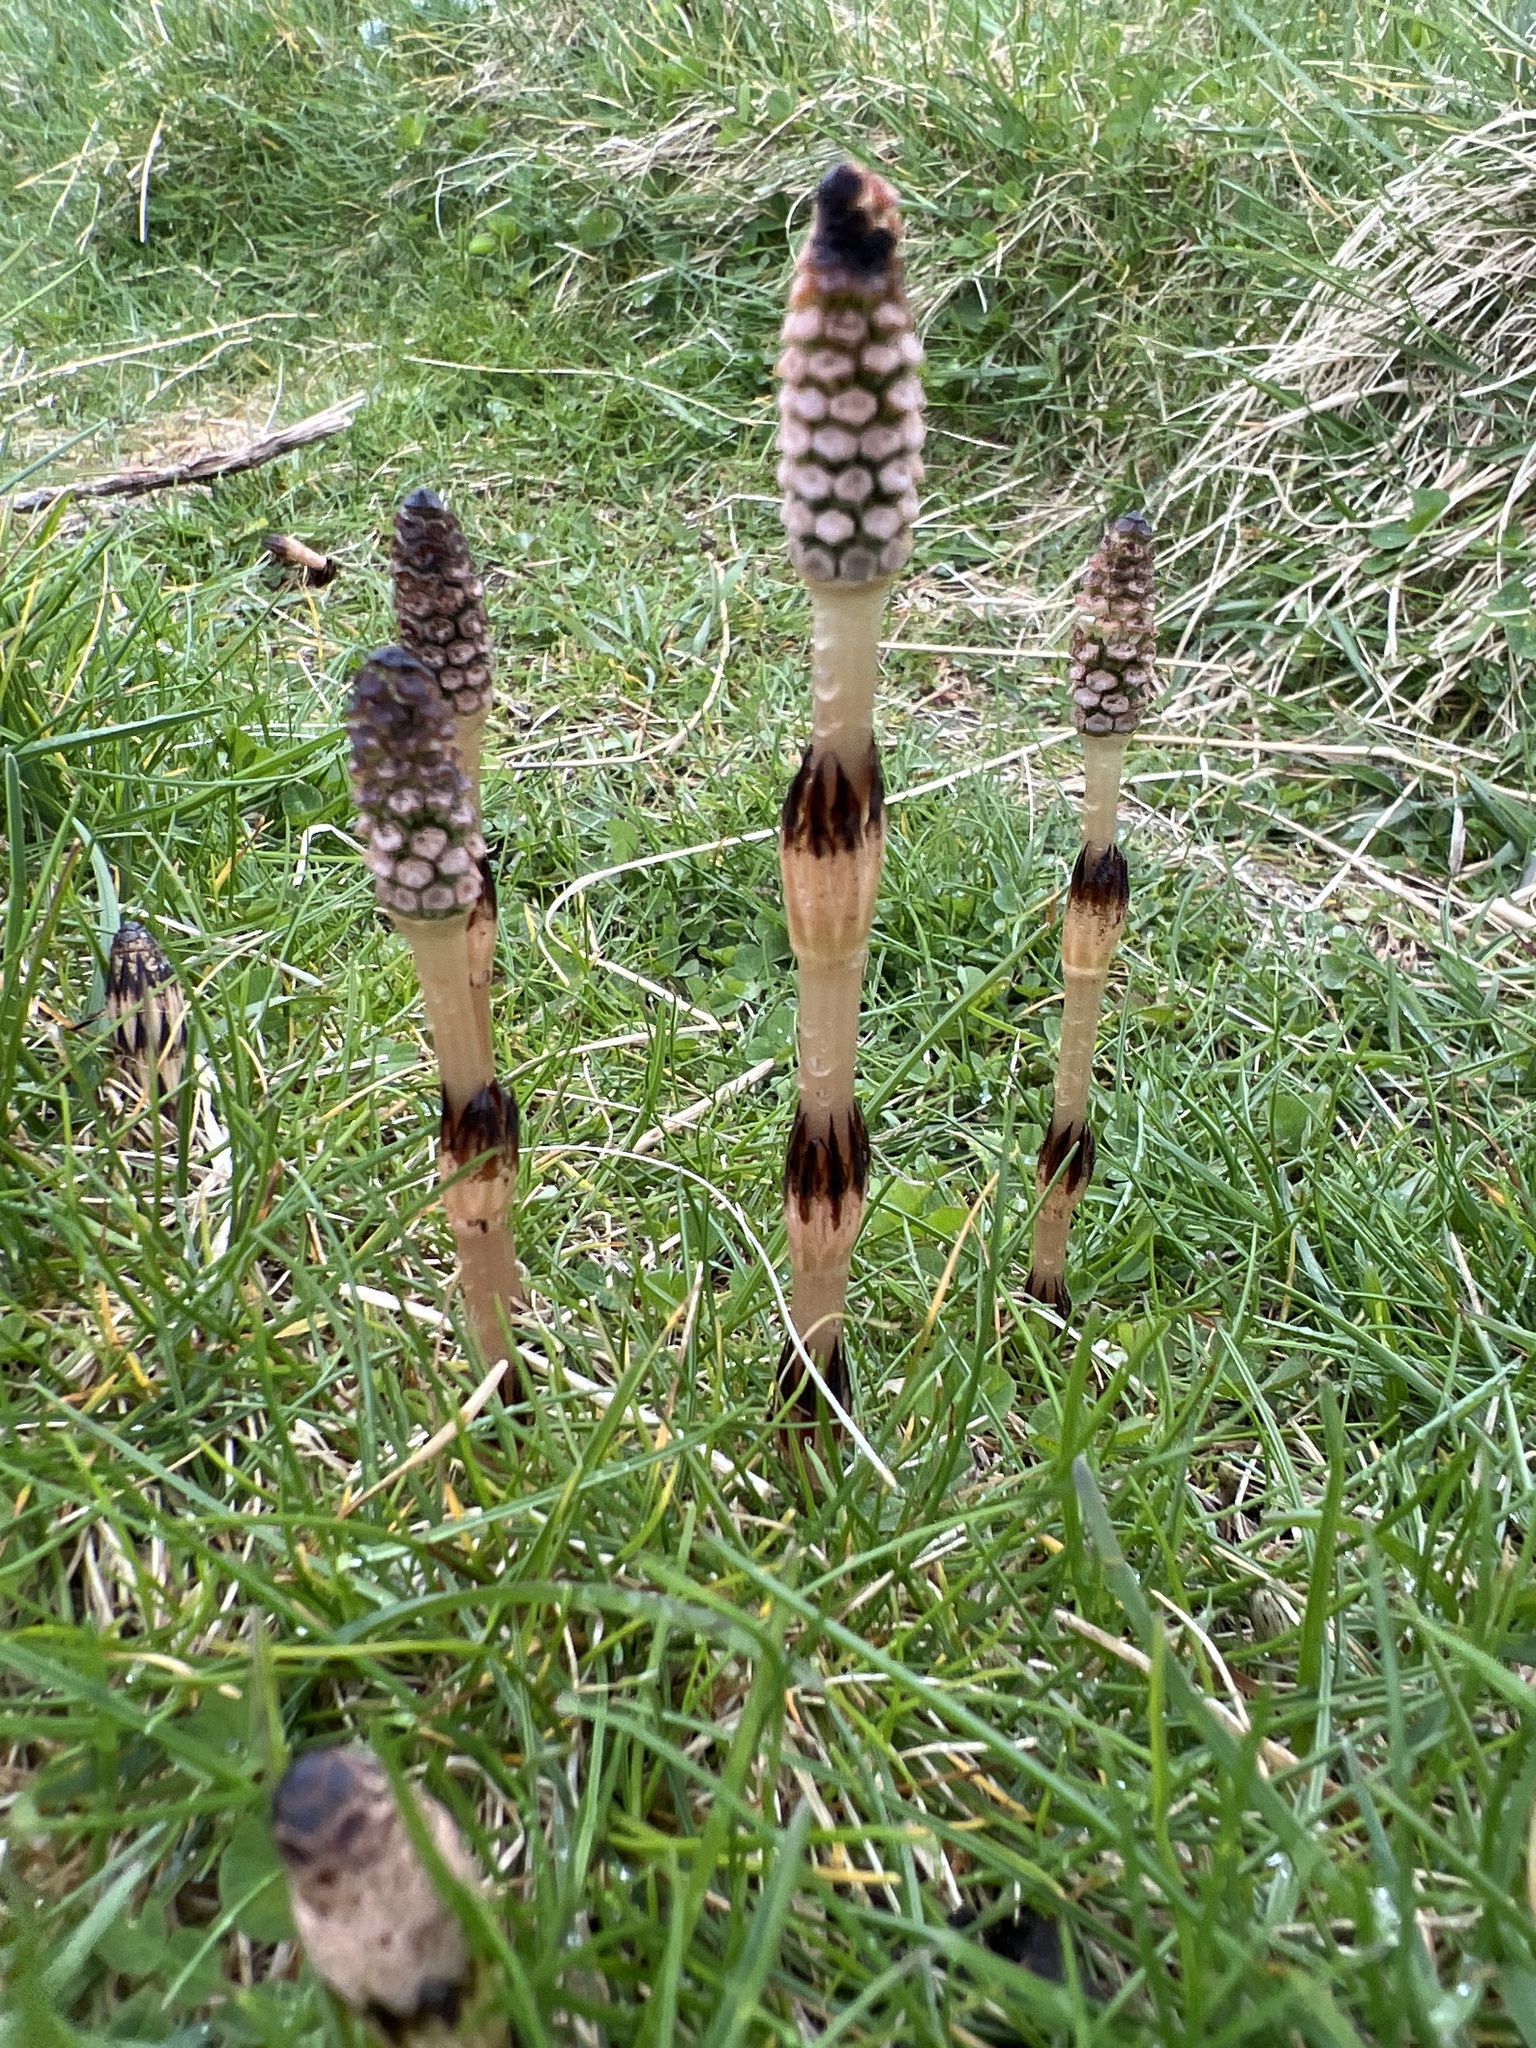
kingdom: Plantae
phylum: Tracheophyta
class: Polypodiopsida
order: Equisetales
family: Equisetaceae
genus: Equisetum
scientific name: Equisetum arvense
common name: Field horsetail
